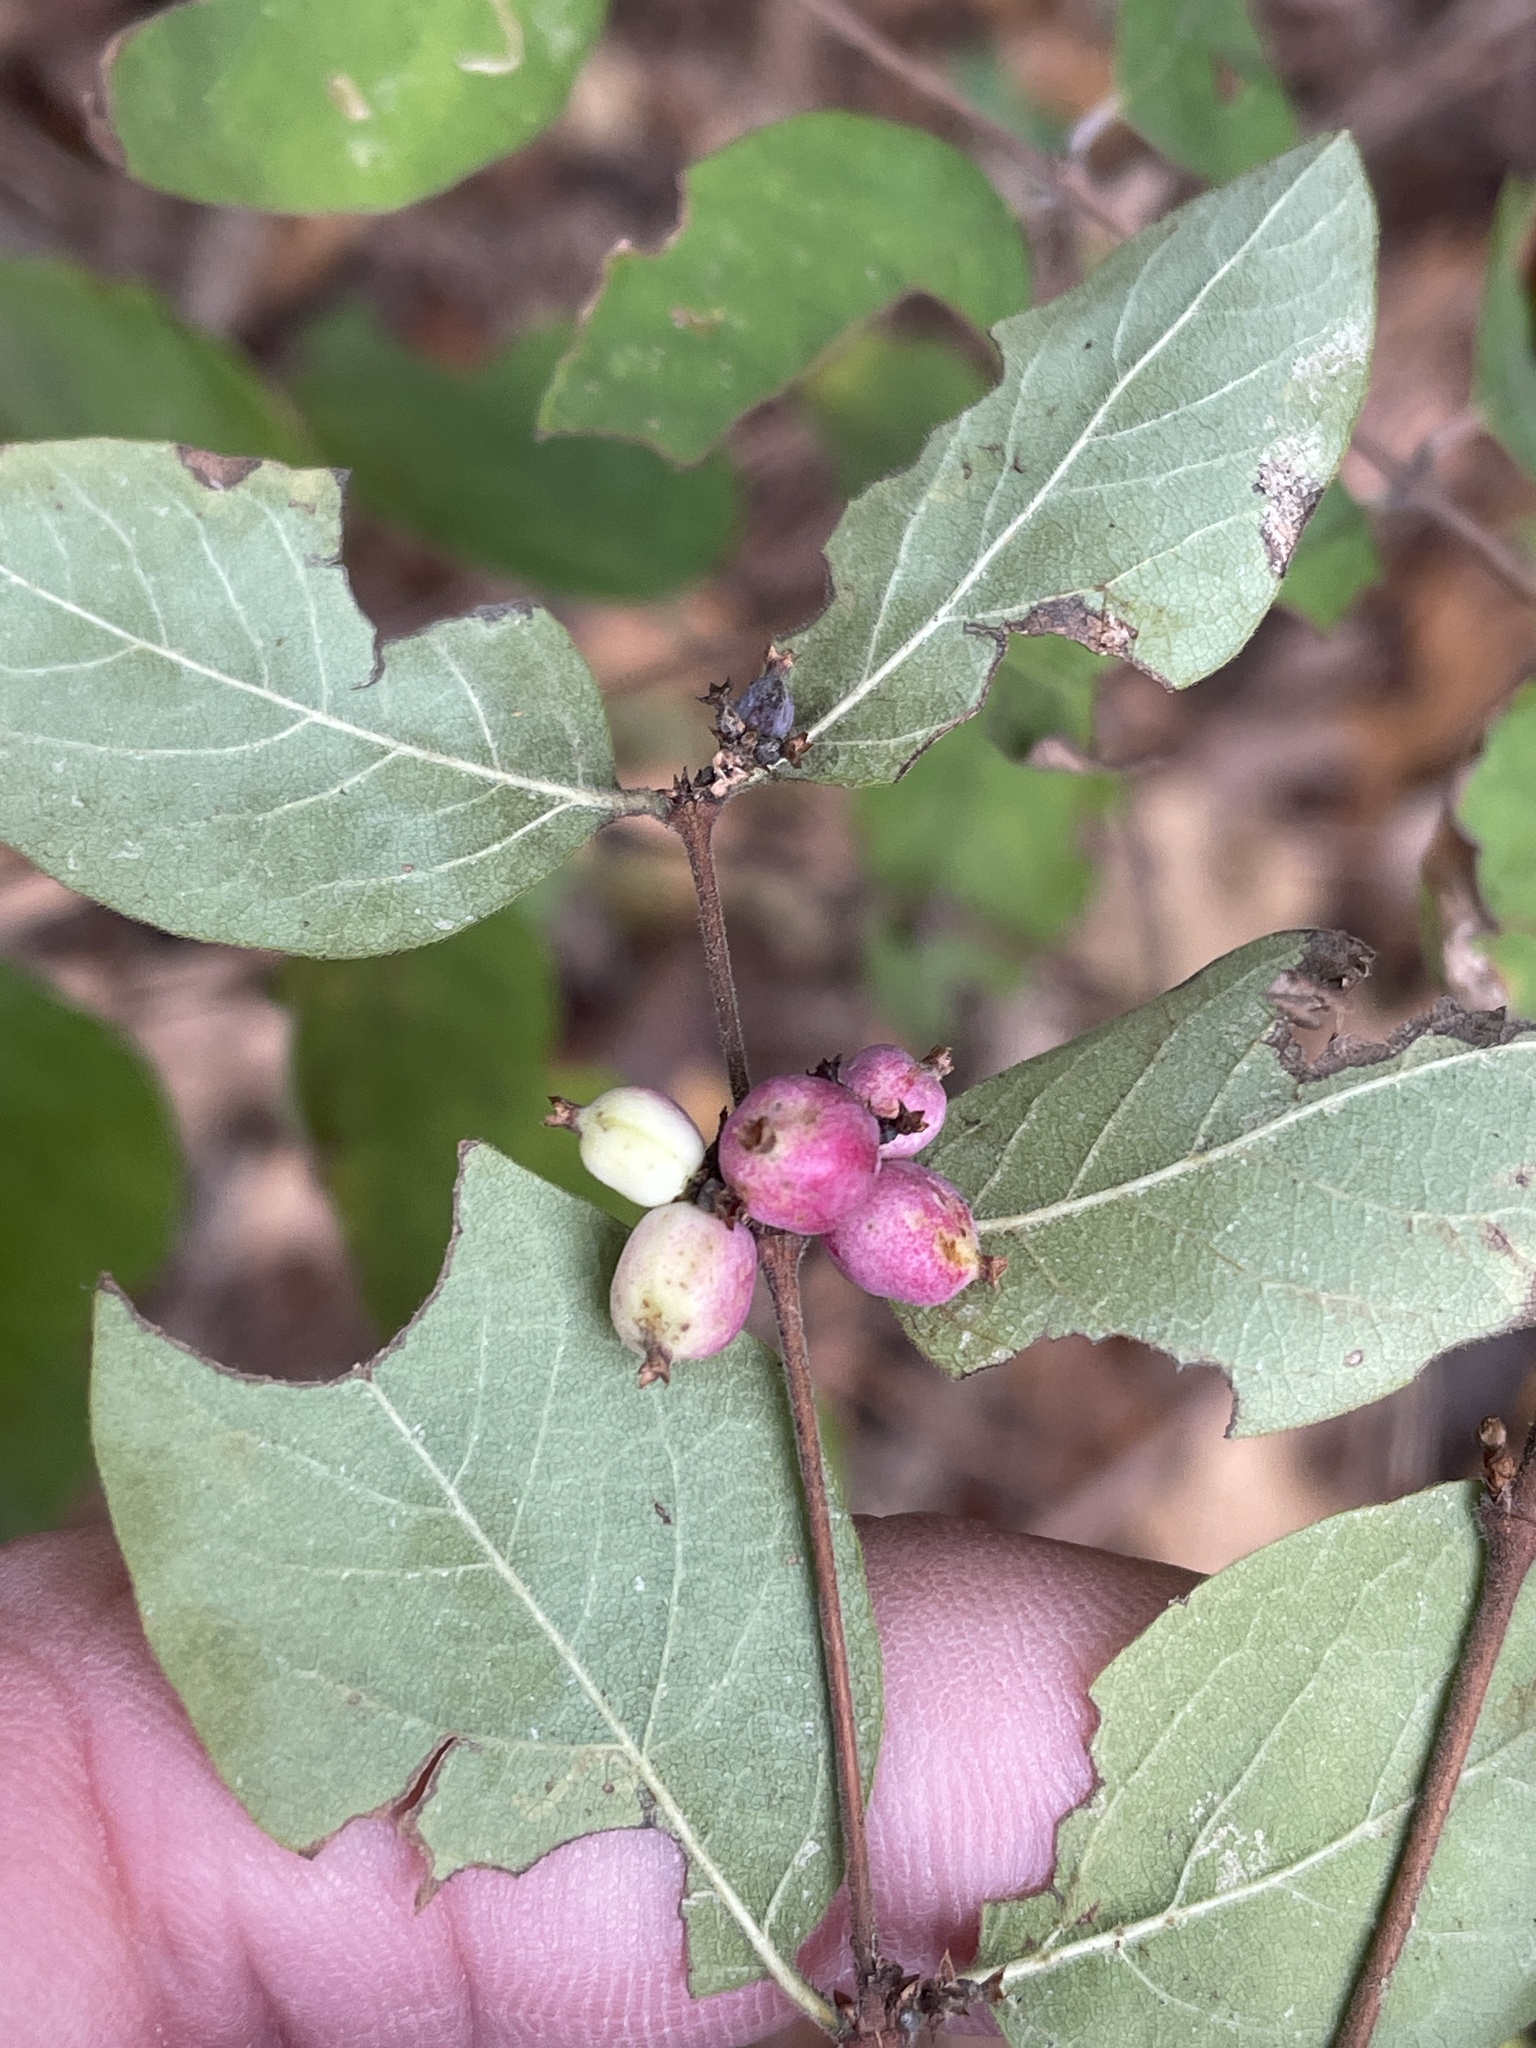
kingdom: Plantae
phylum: Tracheophyta
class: Magnoliopsida
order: Dipsacales
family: Caprifoliaceae
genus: Symphoricarpos
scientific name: Symphoricarpos orbiculatus
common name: Coralberry
